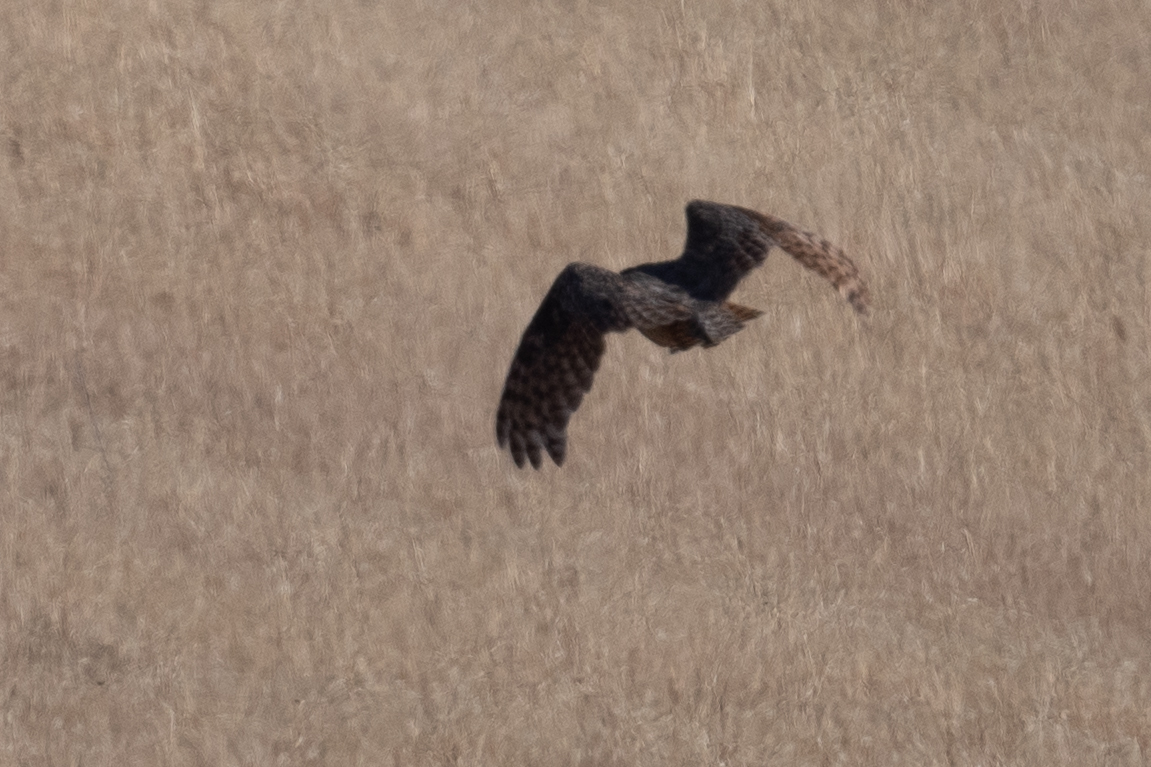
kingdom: Animalia
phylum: Chordata
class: Aves
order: Strigiformes
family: Strigidae
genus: Bubo
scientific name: Bubo virginianus
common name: Great horned owl
